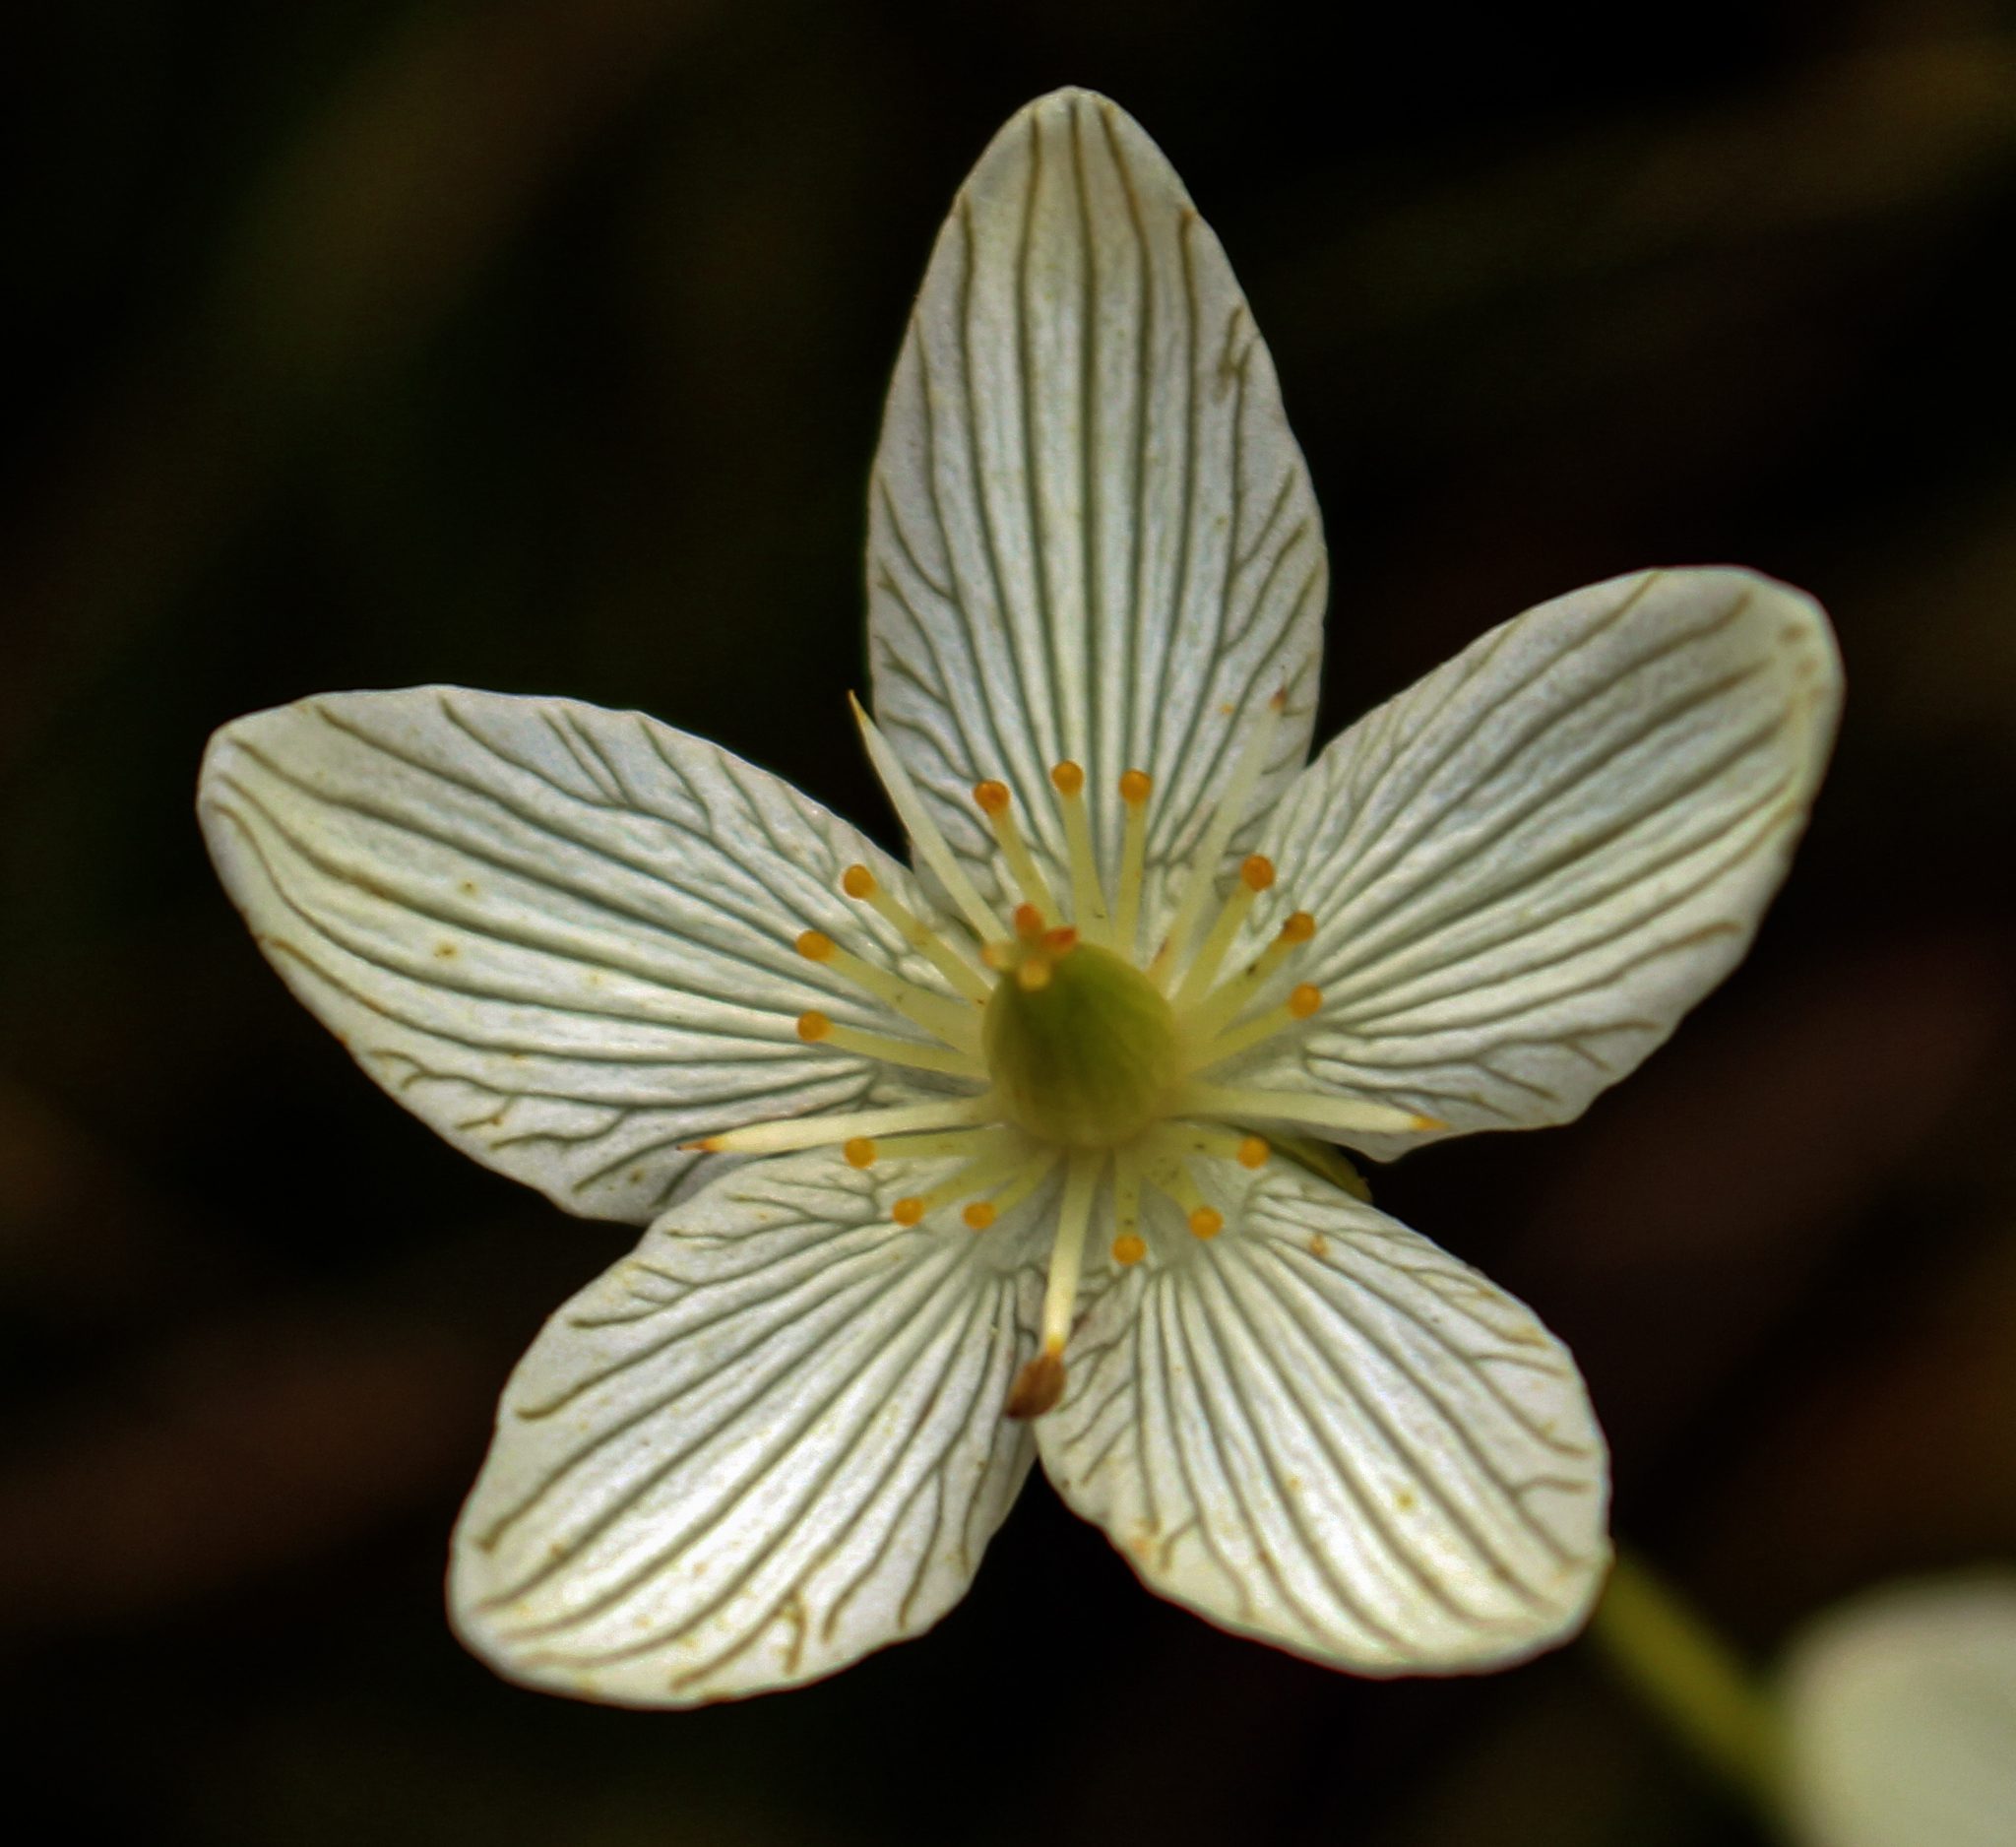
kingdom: Plantae
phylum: Tracheophyta
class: Magnoliopsida
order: Celastrales
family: Parnassiaceae
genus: Parnassia
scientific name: Parnassia glauca
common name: American grass-of-parnassus
